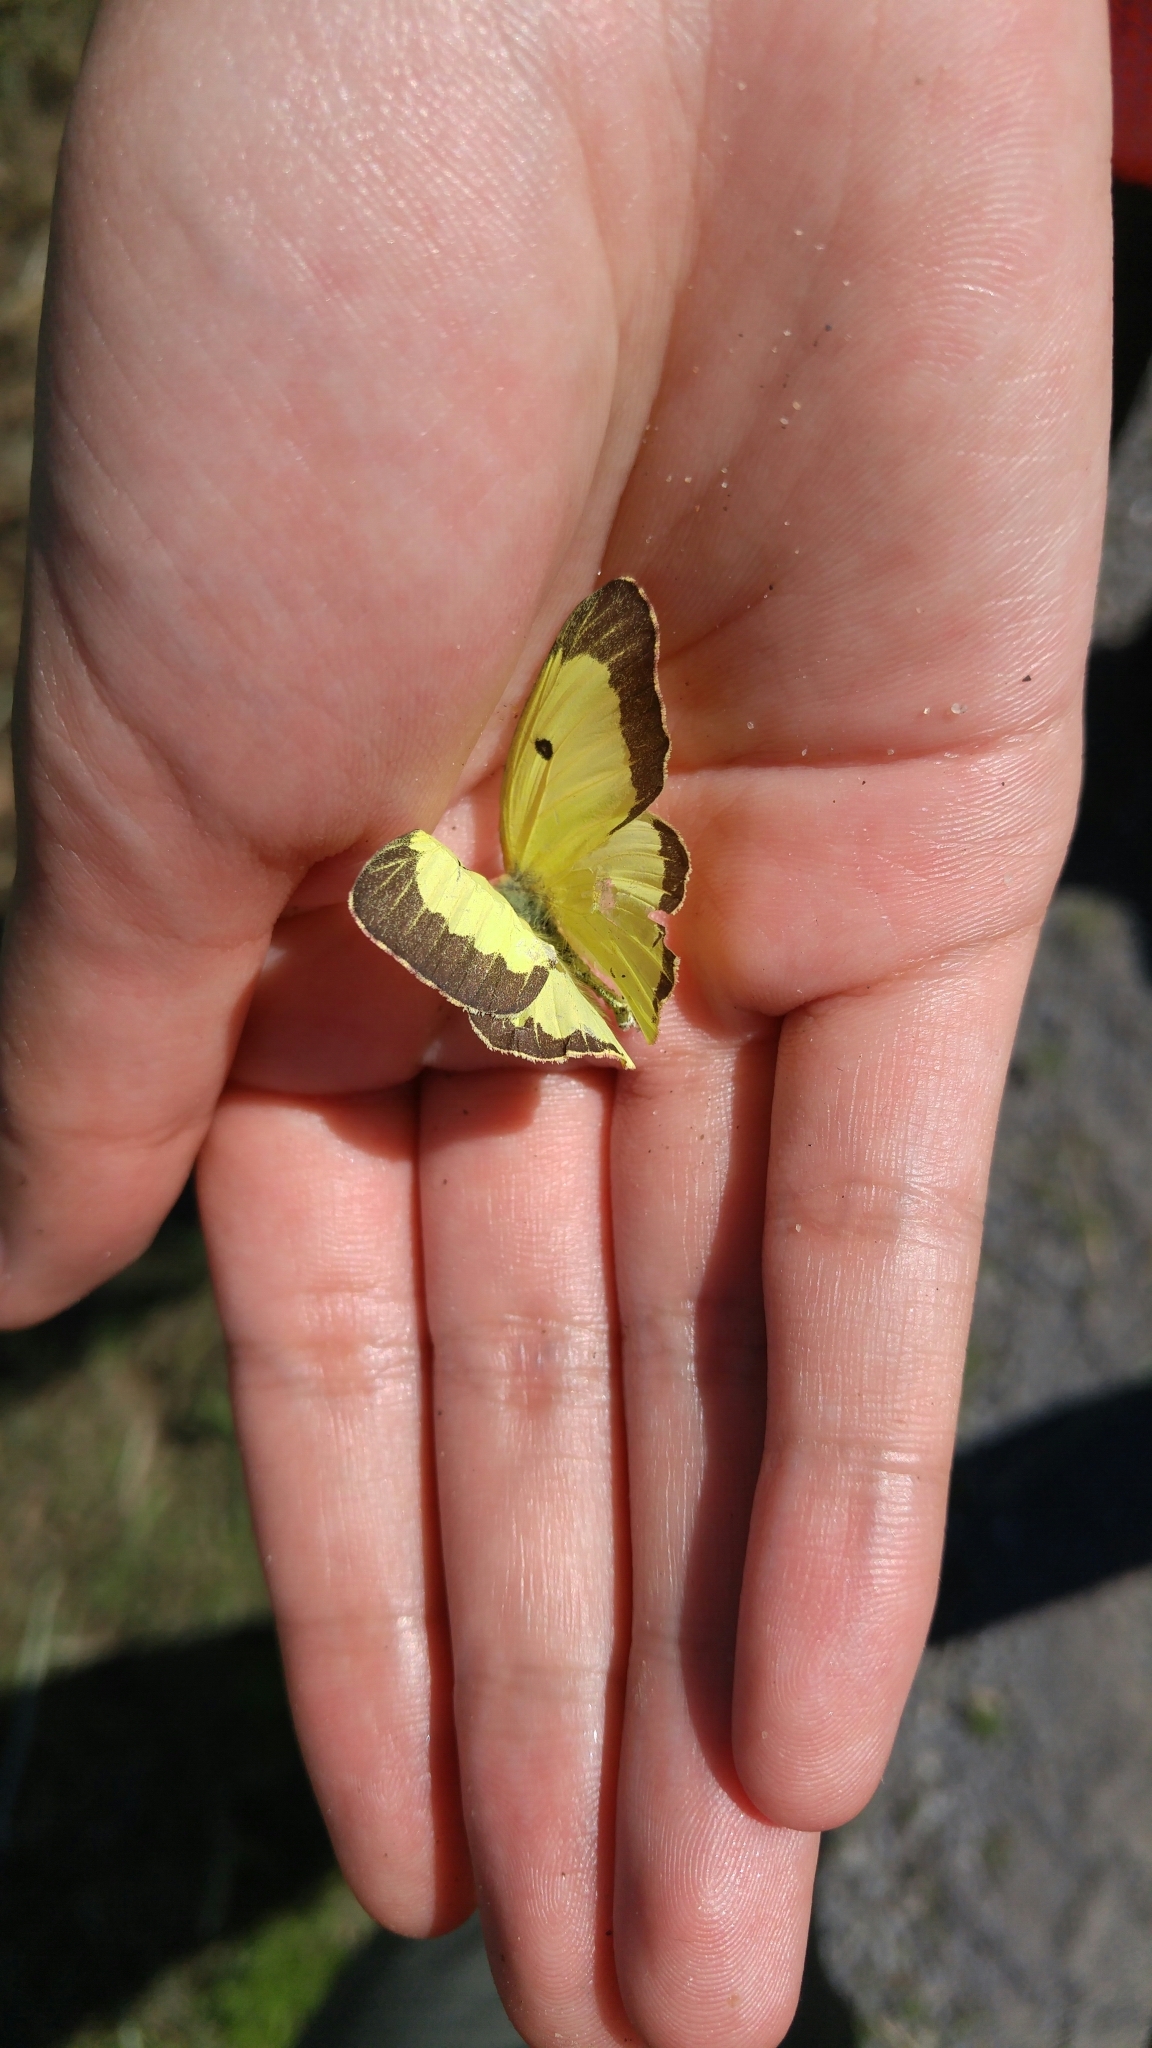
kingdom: Animalia
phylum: Arthropoda
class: Insecta
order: Lepidoptera
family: Pieridae
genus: Colias
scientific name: Colias philodice
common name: Clouded sulphur
